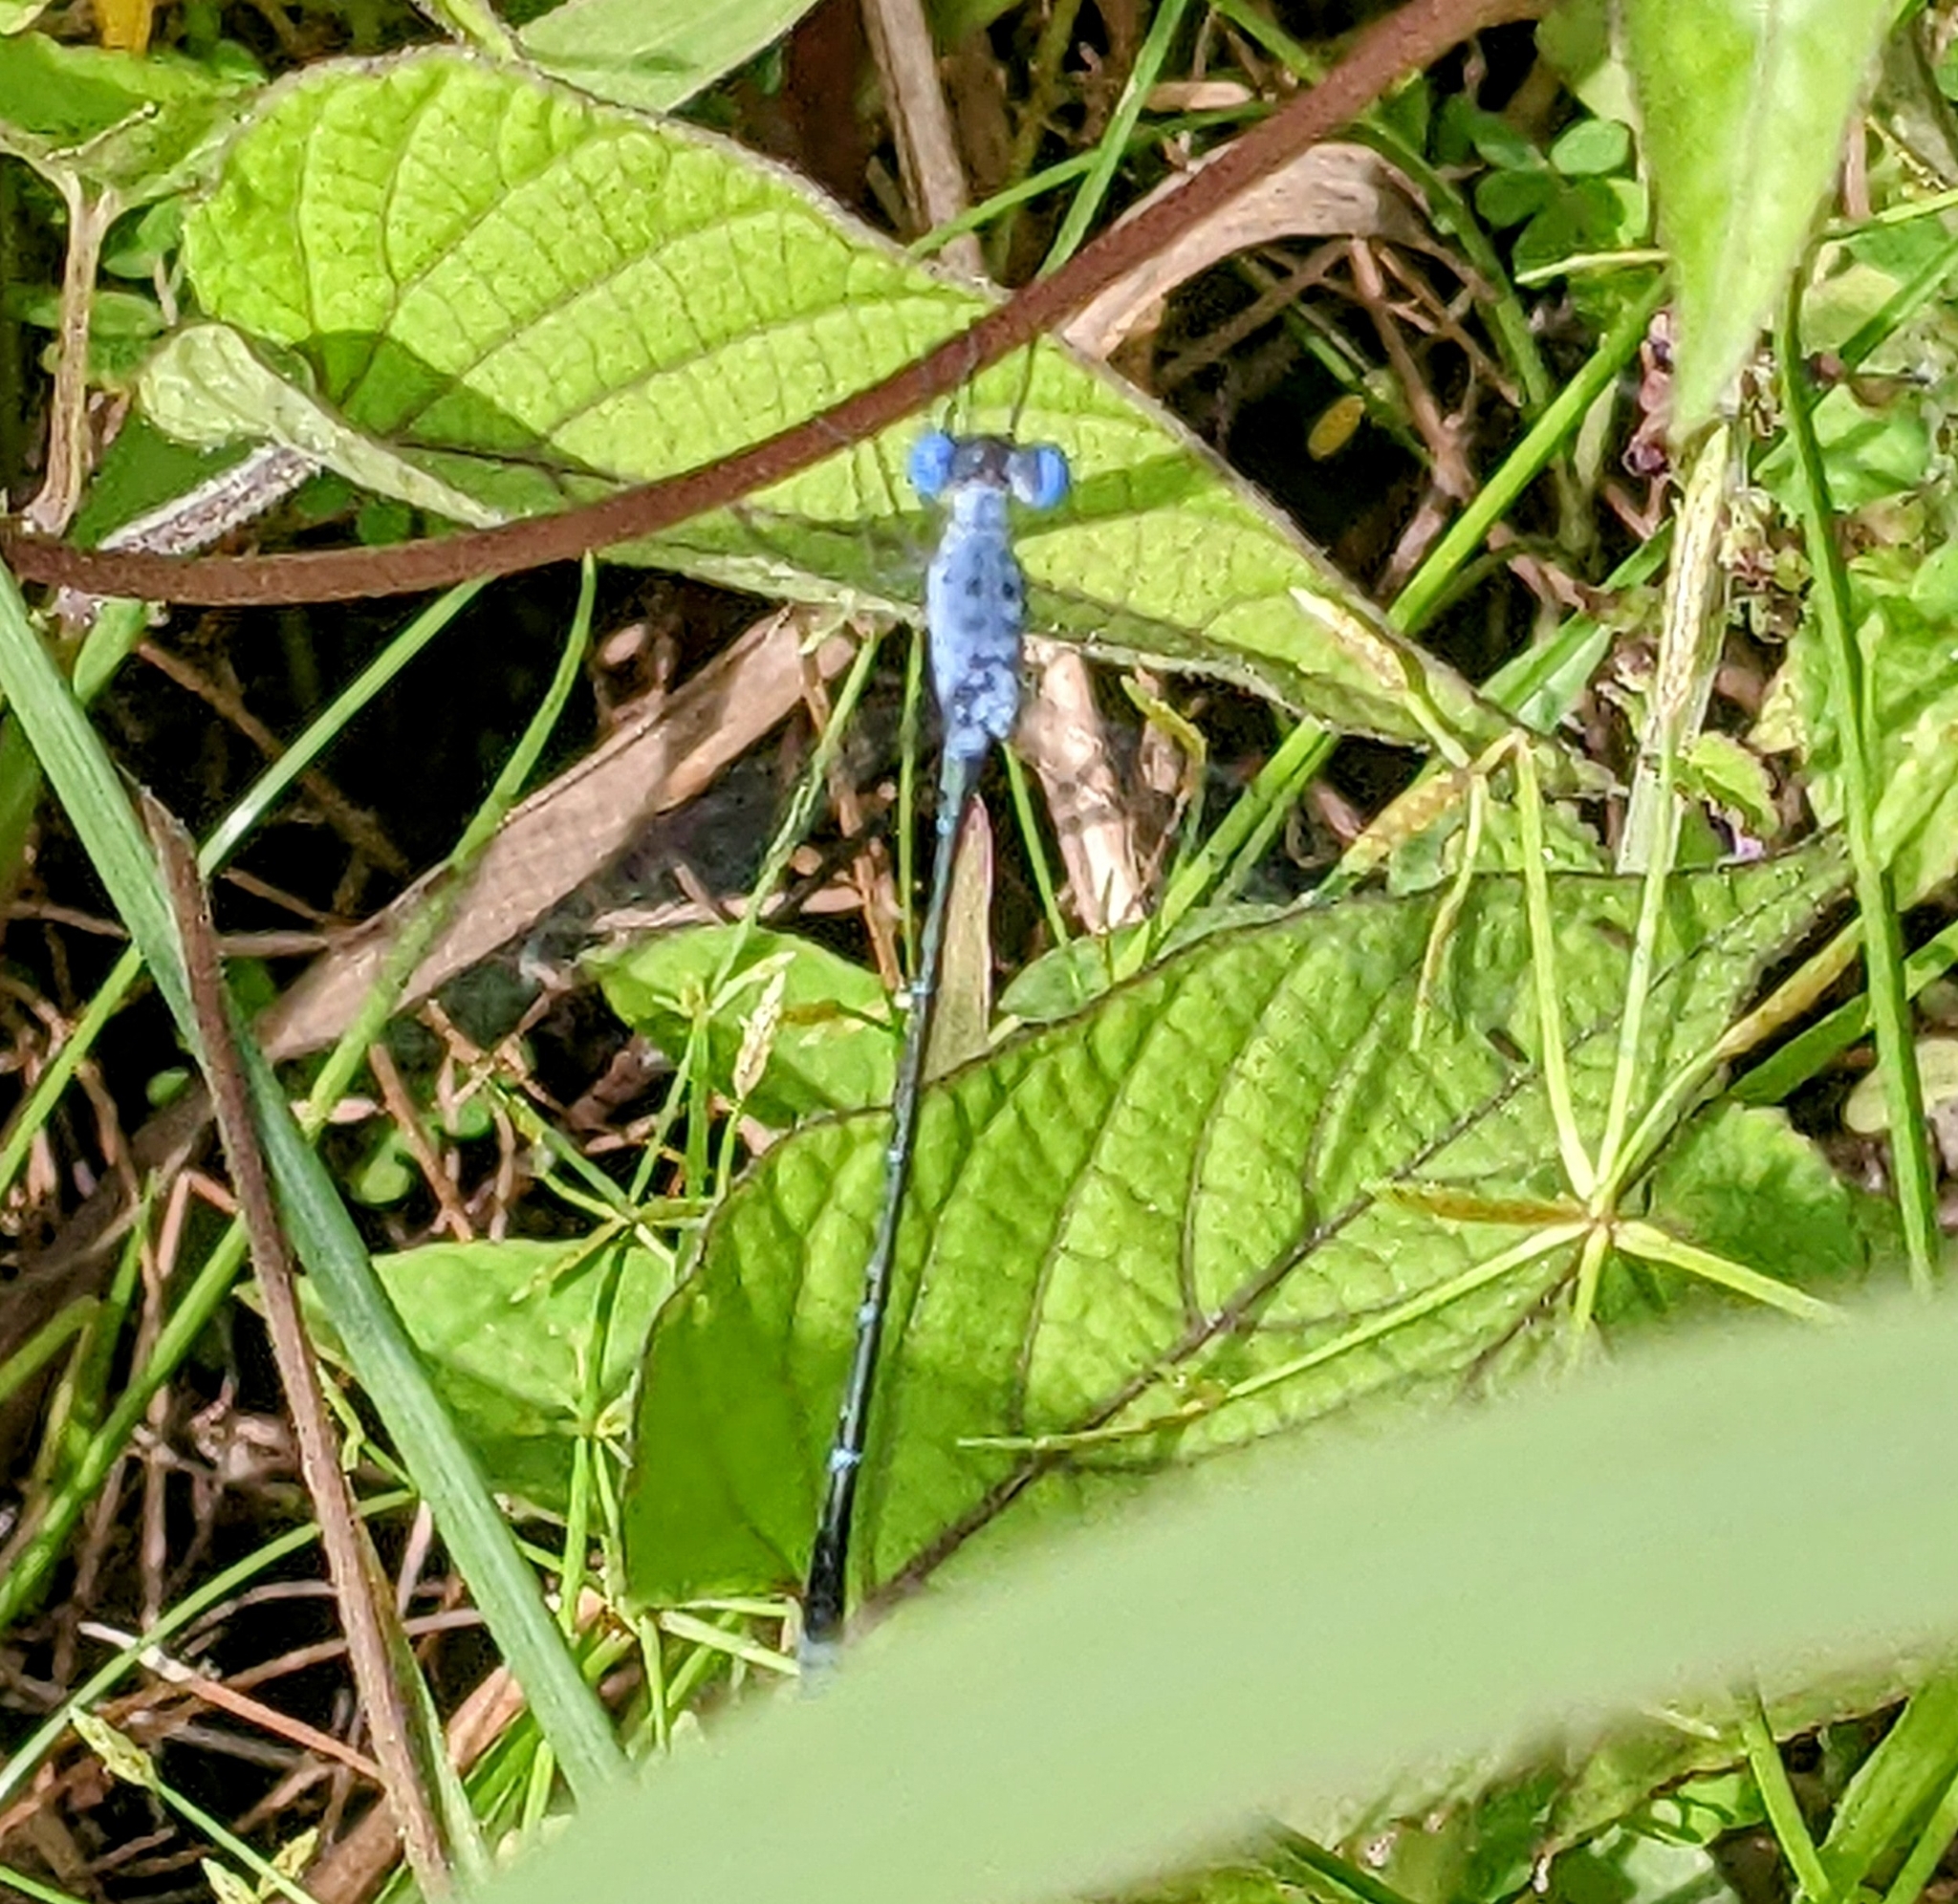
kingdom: Animalia
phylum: Arthropoda
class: Insecta
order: Odonata
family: Lestidae
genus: Lestes
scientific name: Lestes praemorsus
